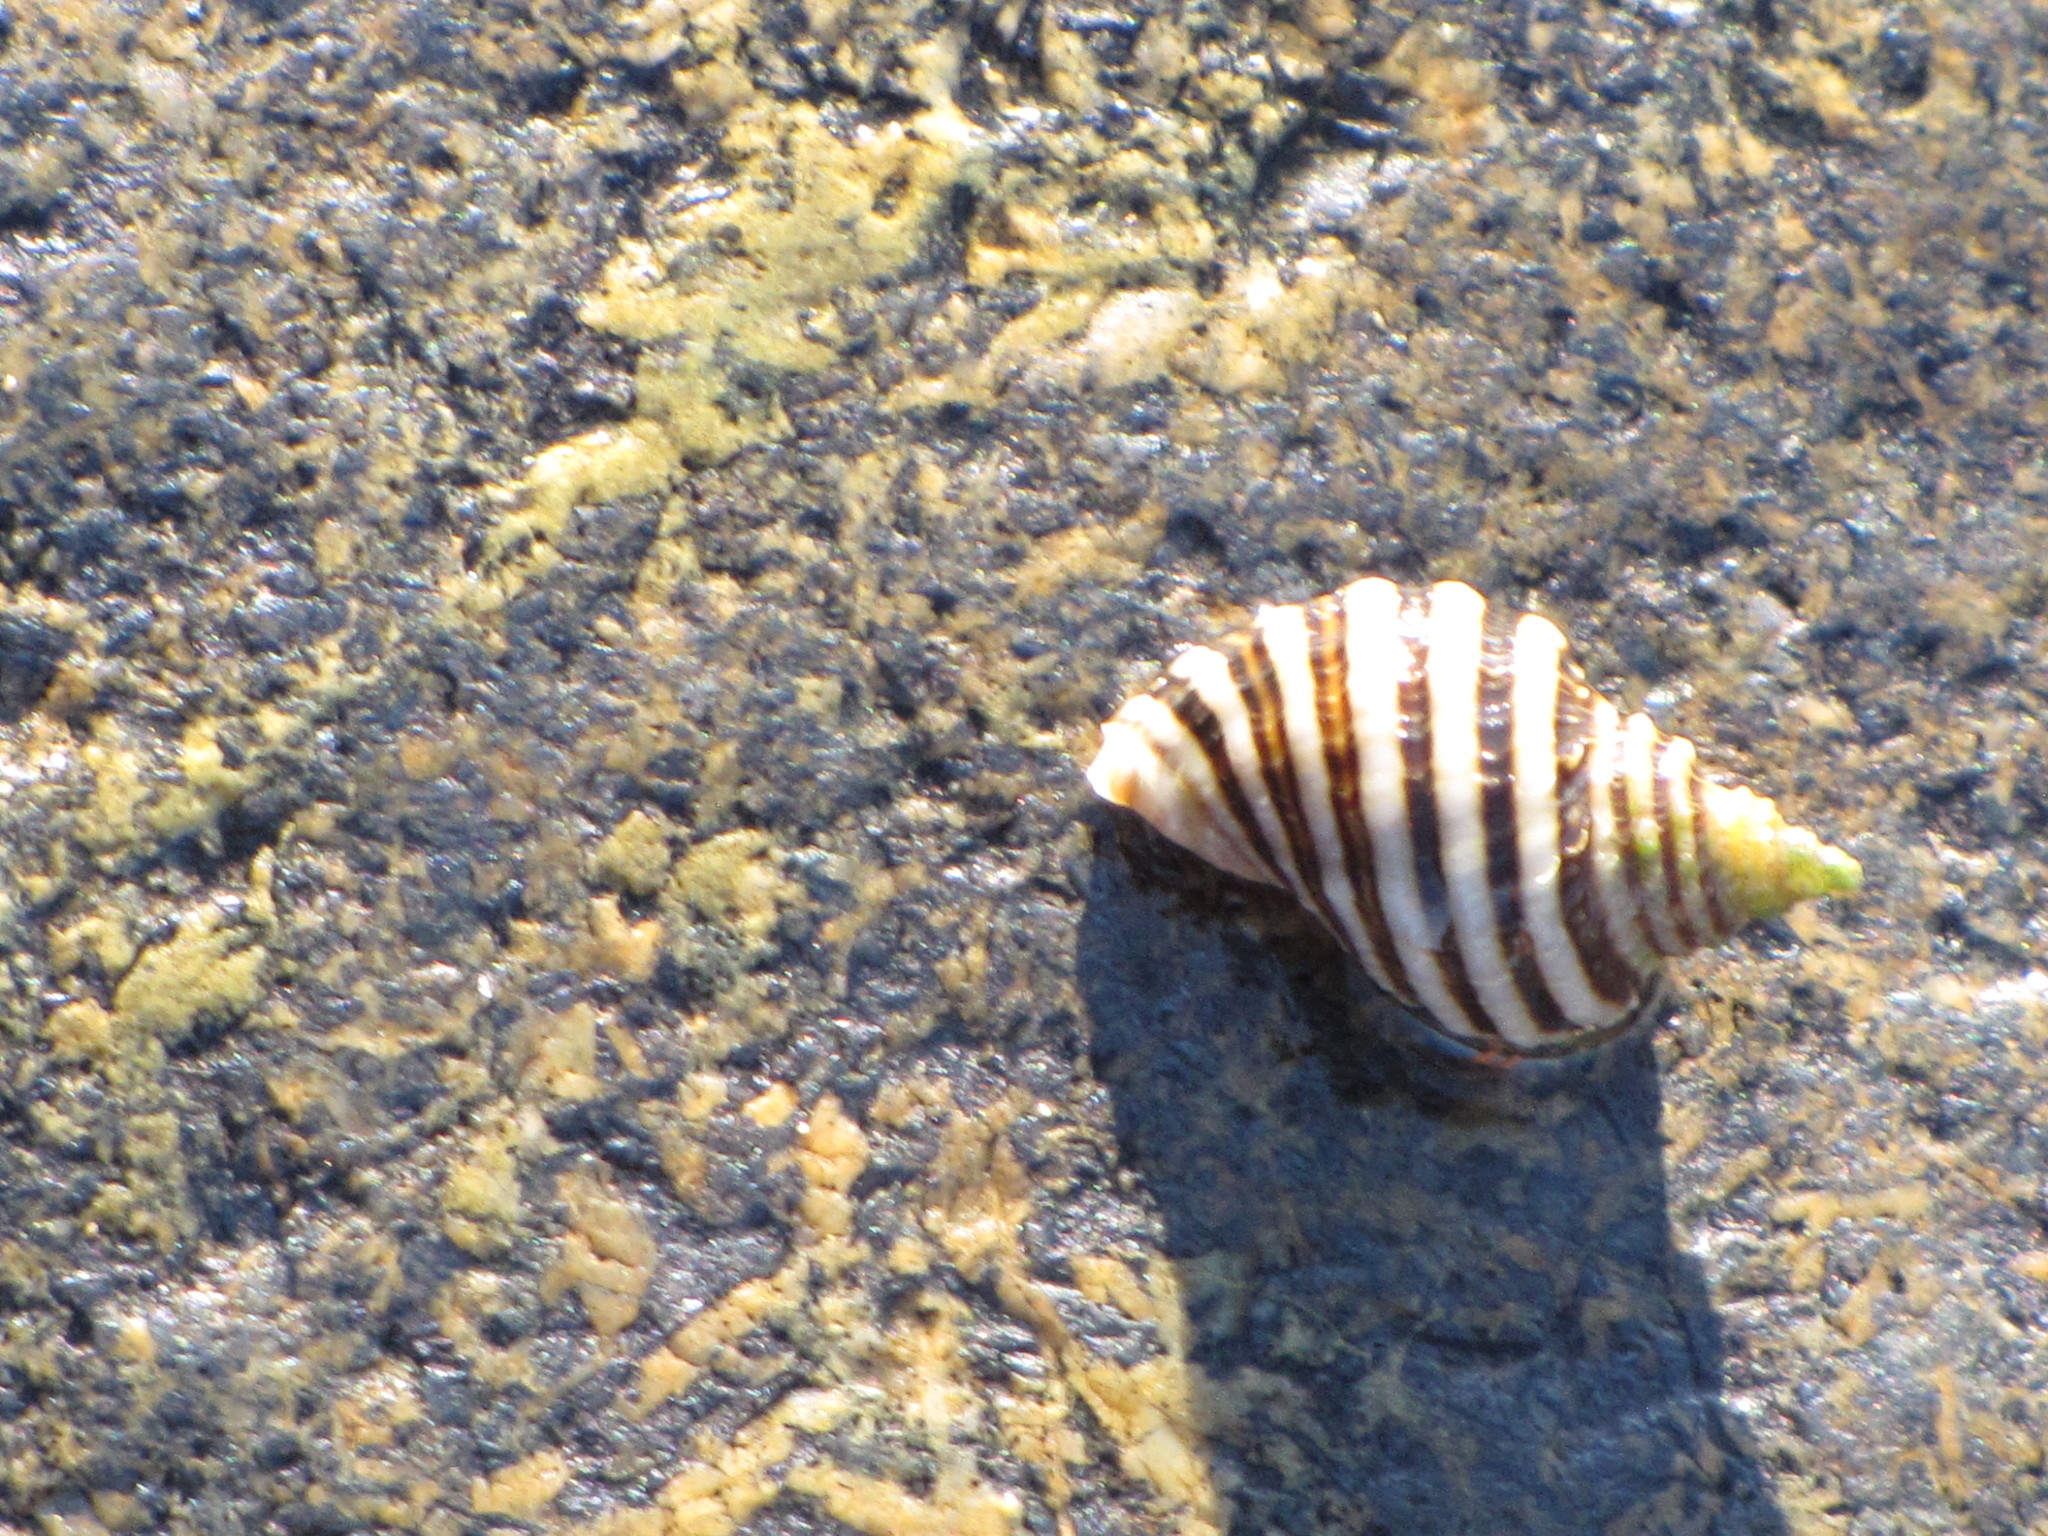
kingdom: Animalia
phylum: Mollusca
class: Gastropoda
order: Neogastropoda
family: Muricidae
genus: Nucella
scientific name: Nucella ostrina
